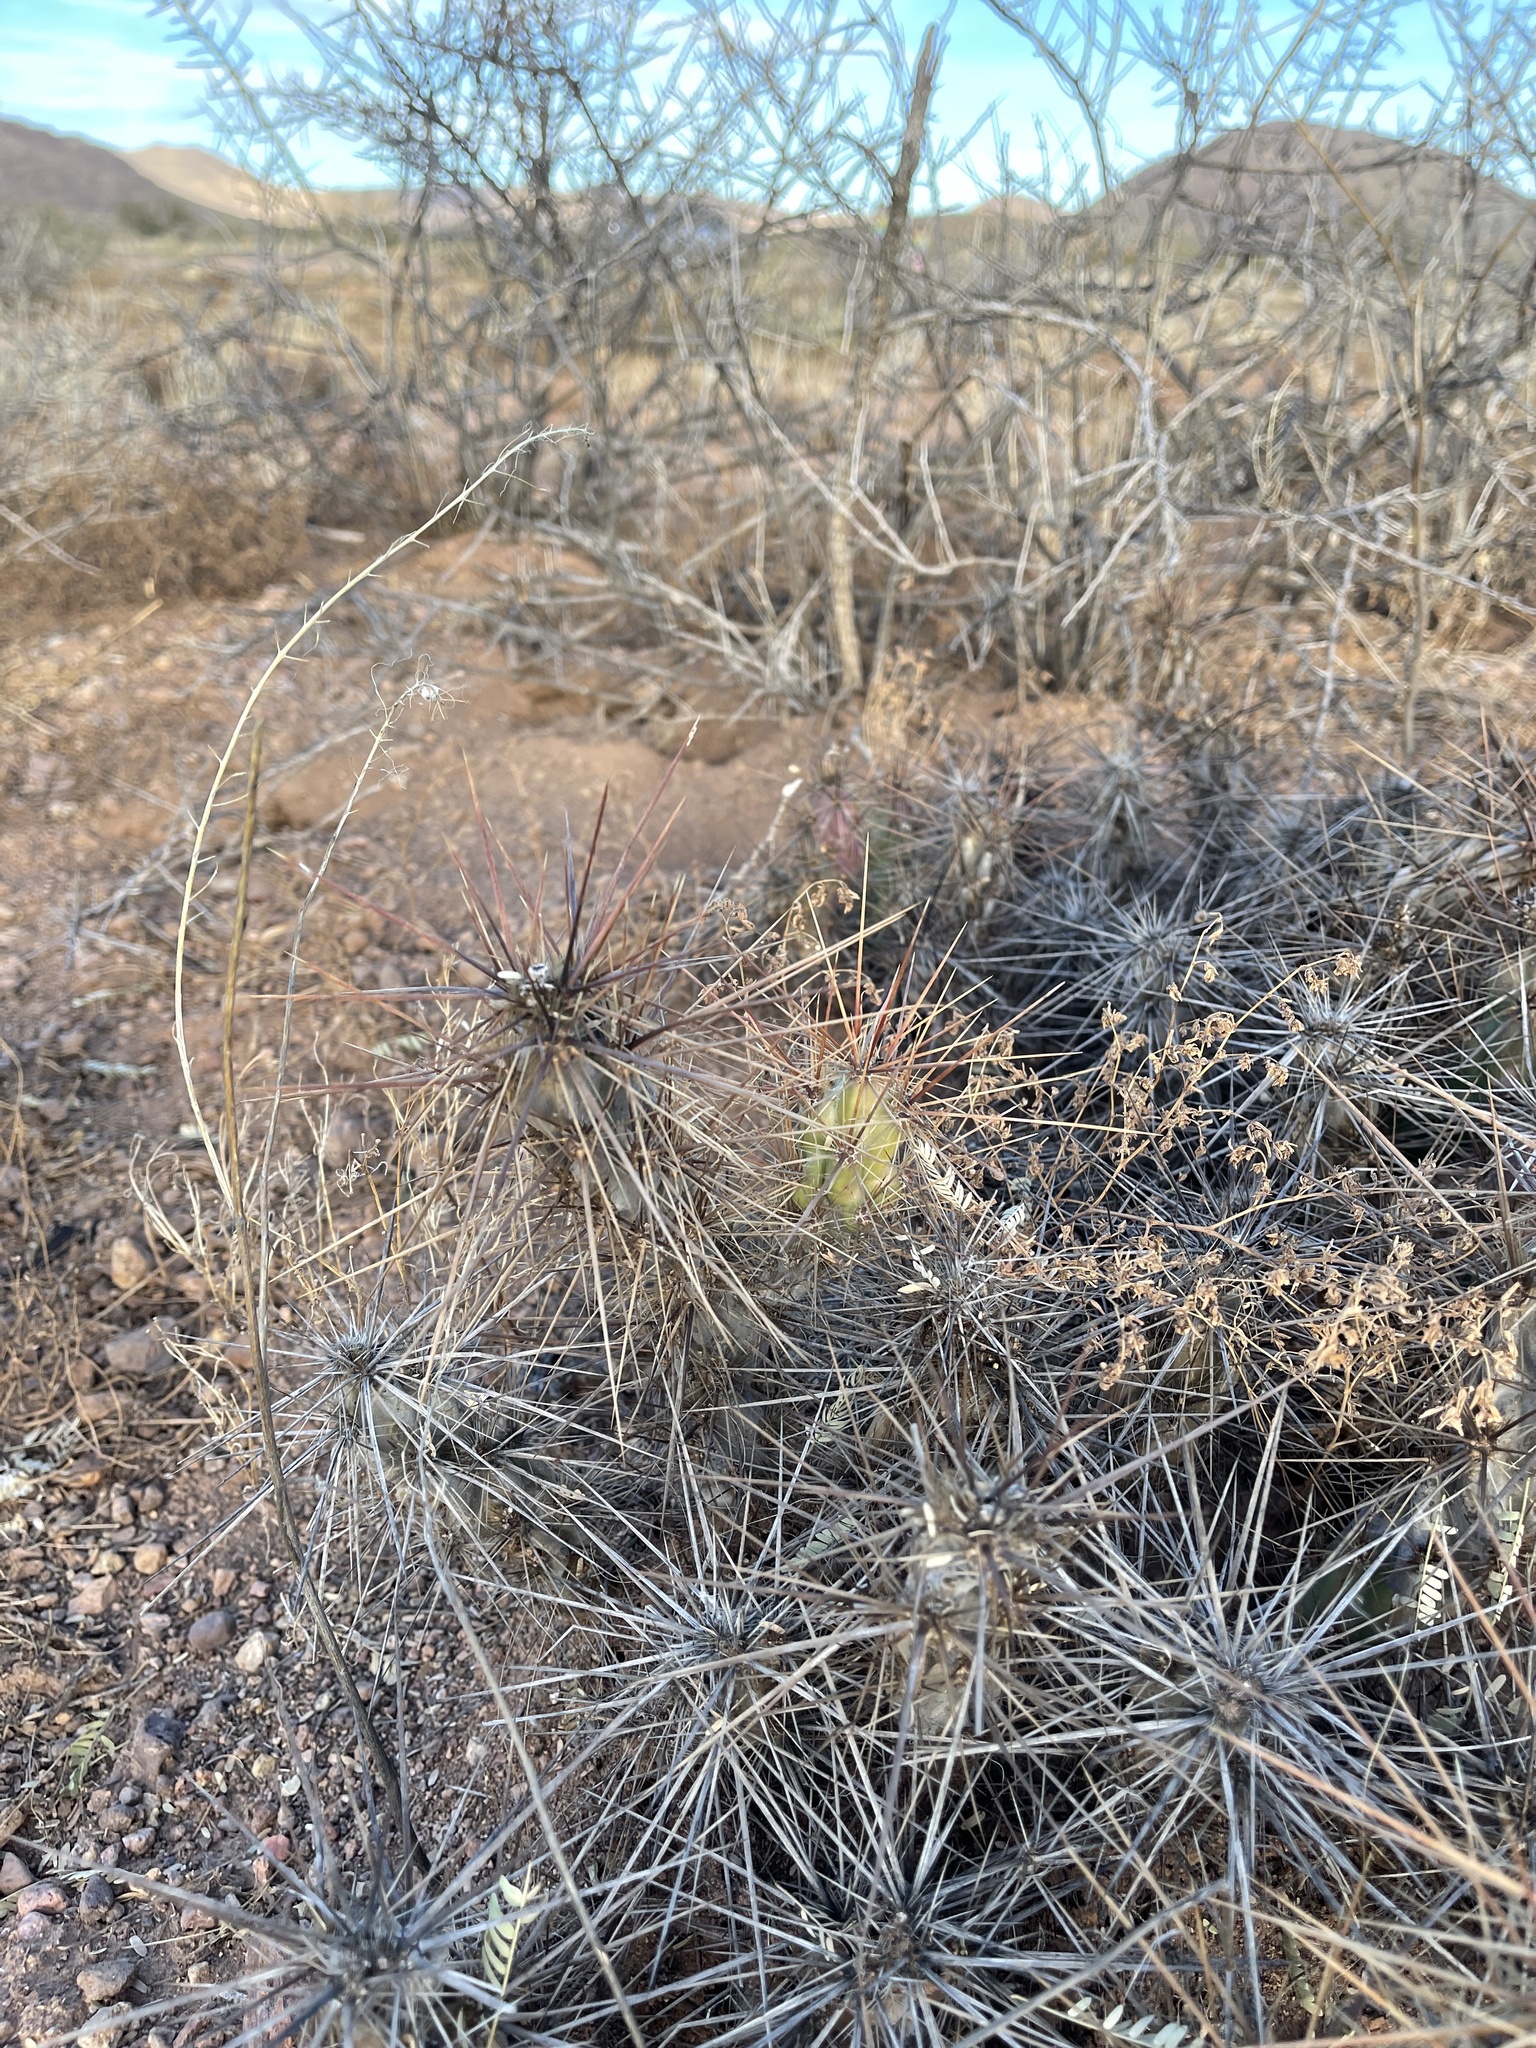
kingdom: Plantae
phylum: Tracheophyta
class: Magnoliopsida
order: Caryophyllales
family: Cactaceae
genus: Grusonia
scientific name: Grusonia emoryi
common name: Stanly's club cholla
